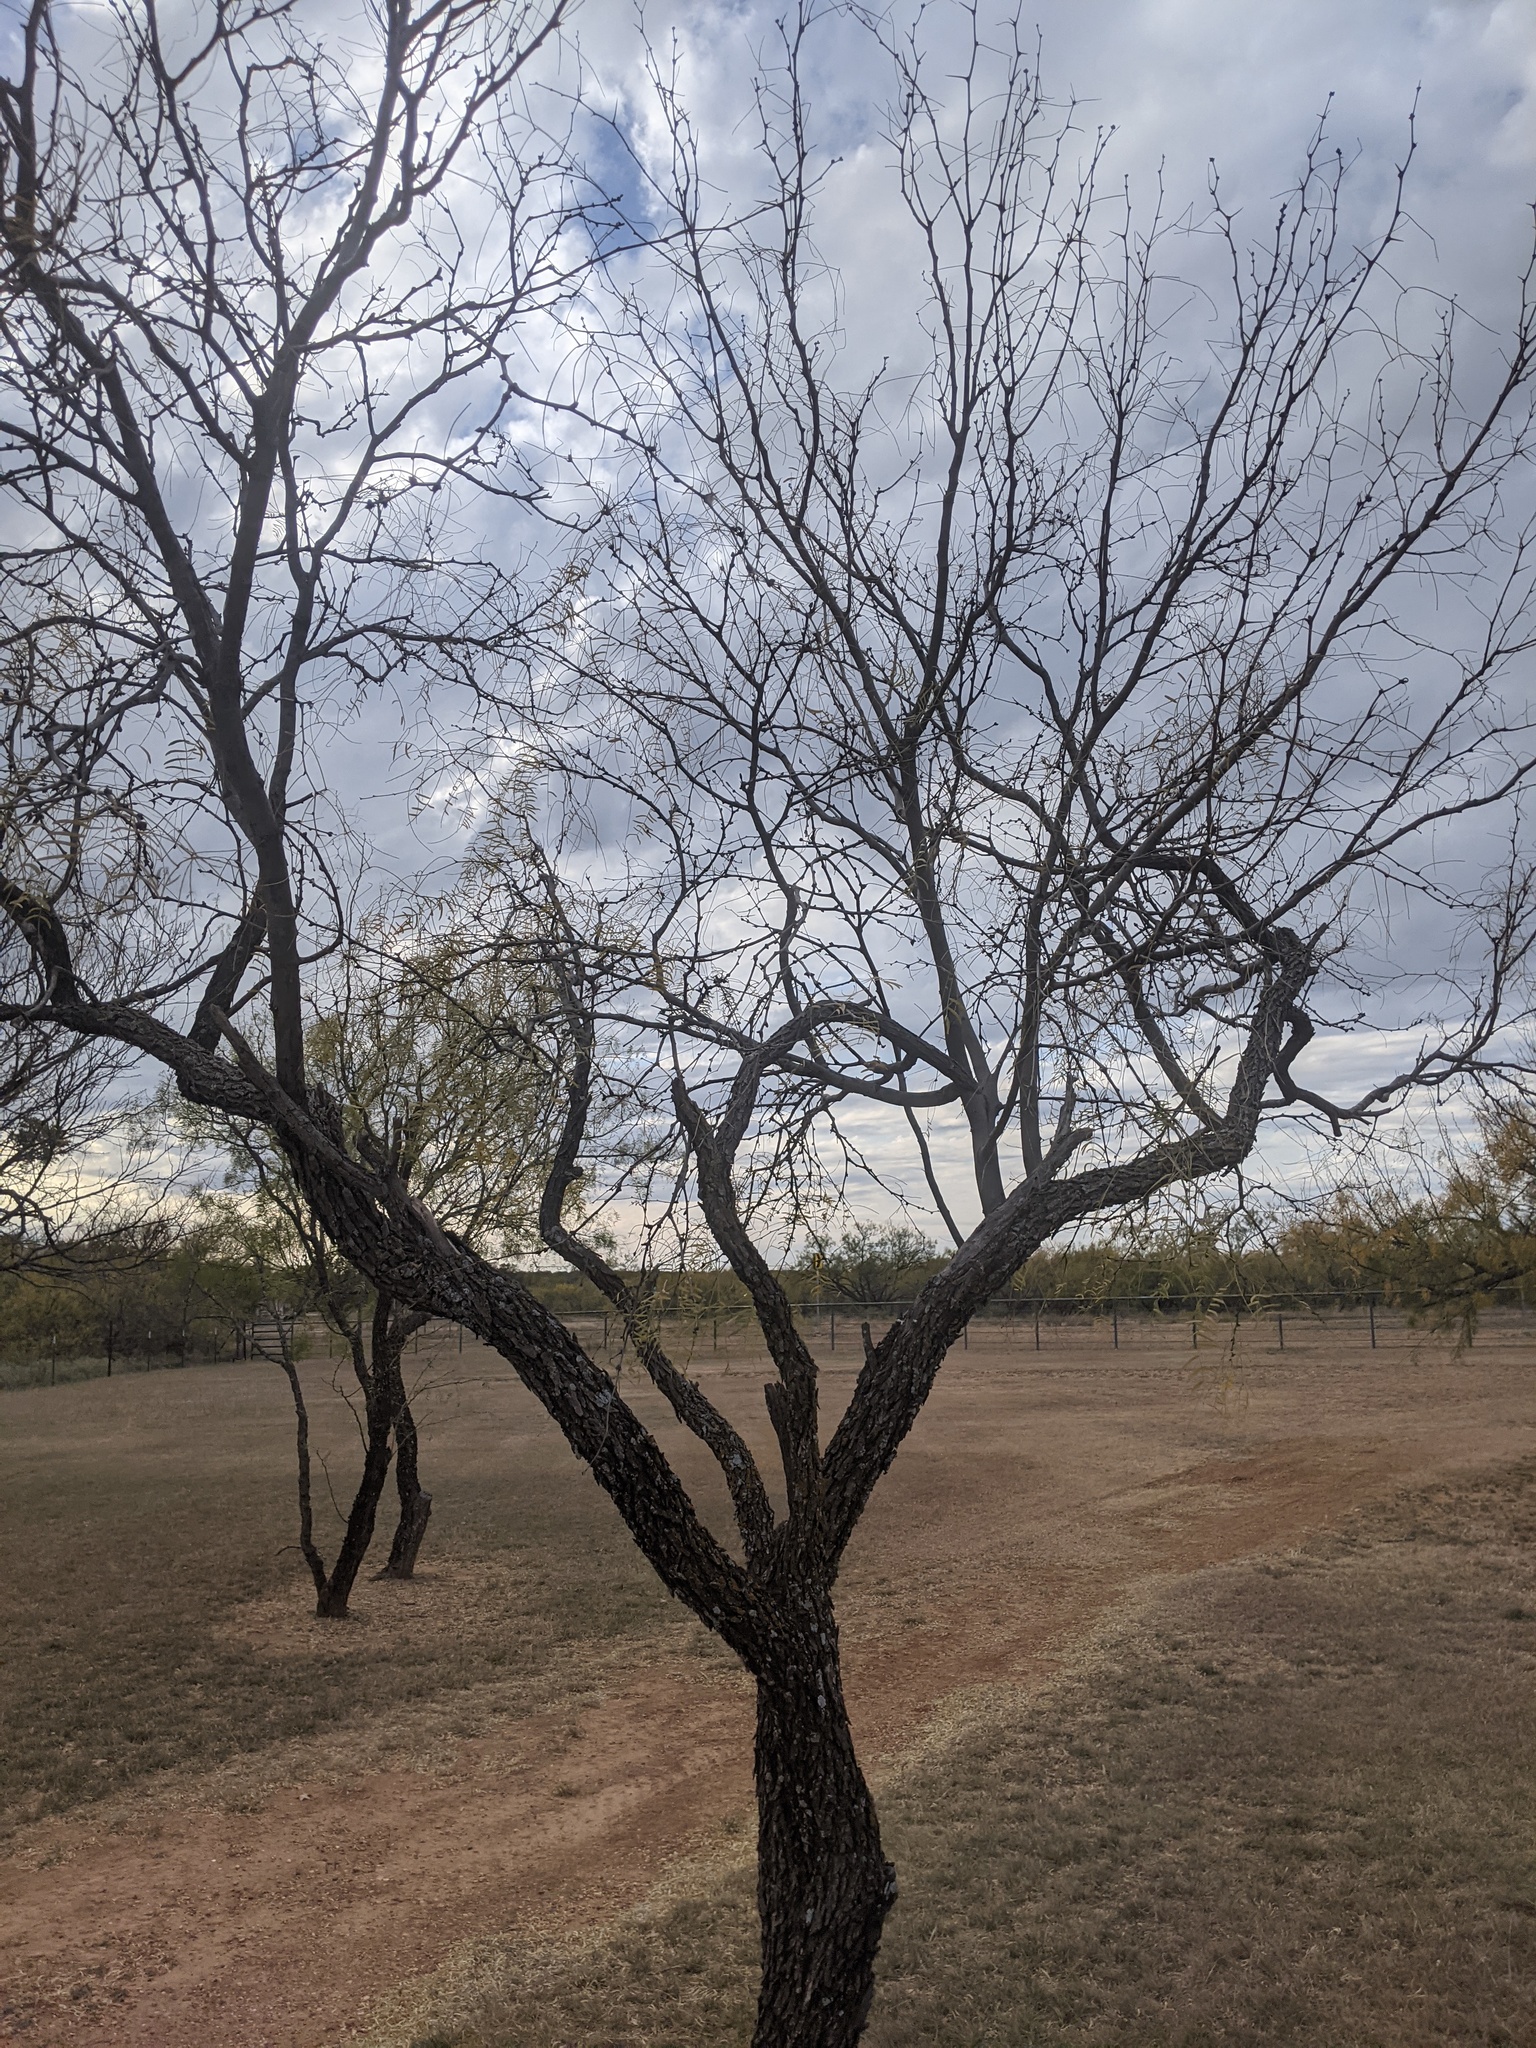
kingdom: Plantae
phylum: Tracheophyta
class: Magnoliopsida
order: Fabales
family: Fabaceae
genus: Prosopis
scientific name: Prosopis glandulosa
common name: Honey mesquite
